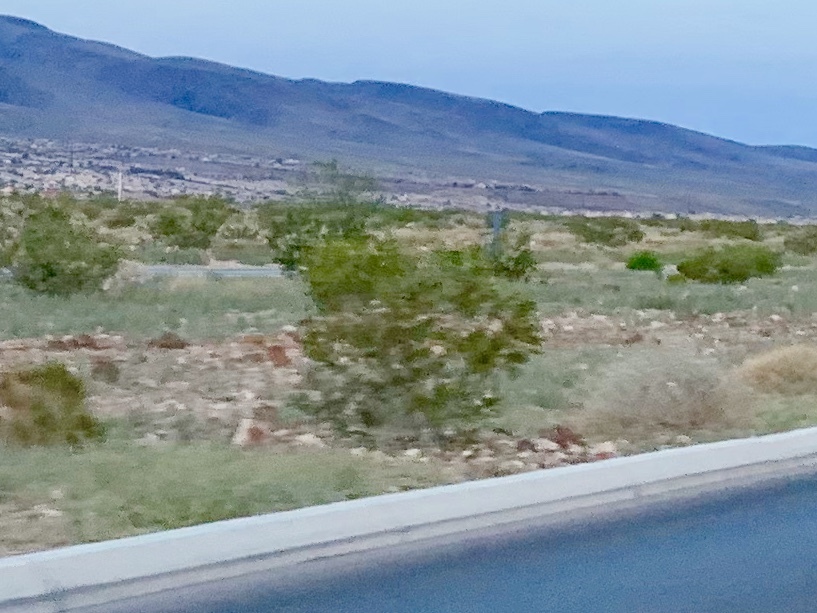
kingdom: Plantae
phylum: Tracheophyta
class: Magnoliopsida
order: Zygophyllales
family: Zygophyllaceae
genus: Larrea
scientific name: Larrea tridentata
